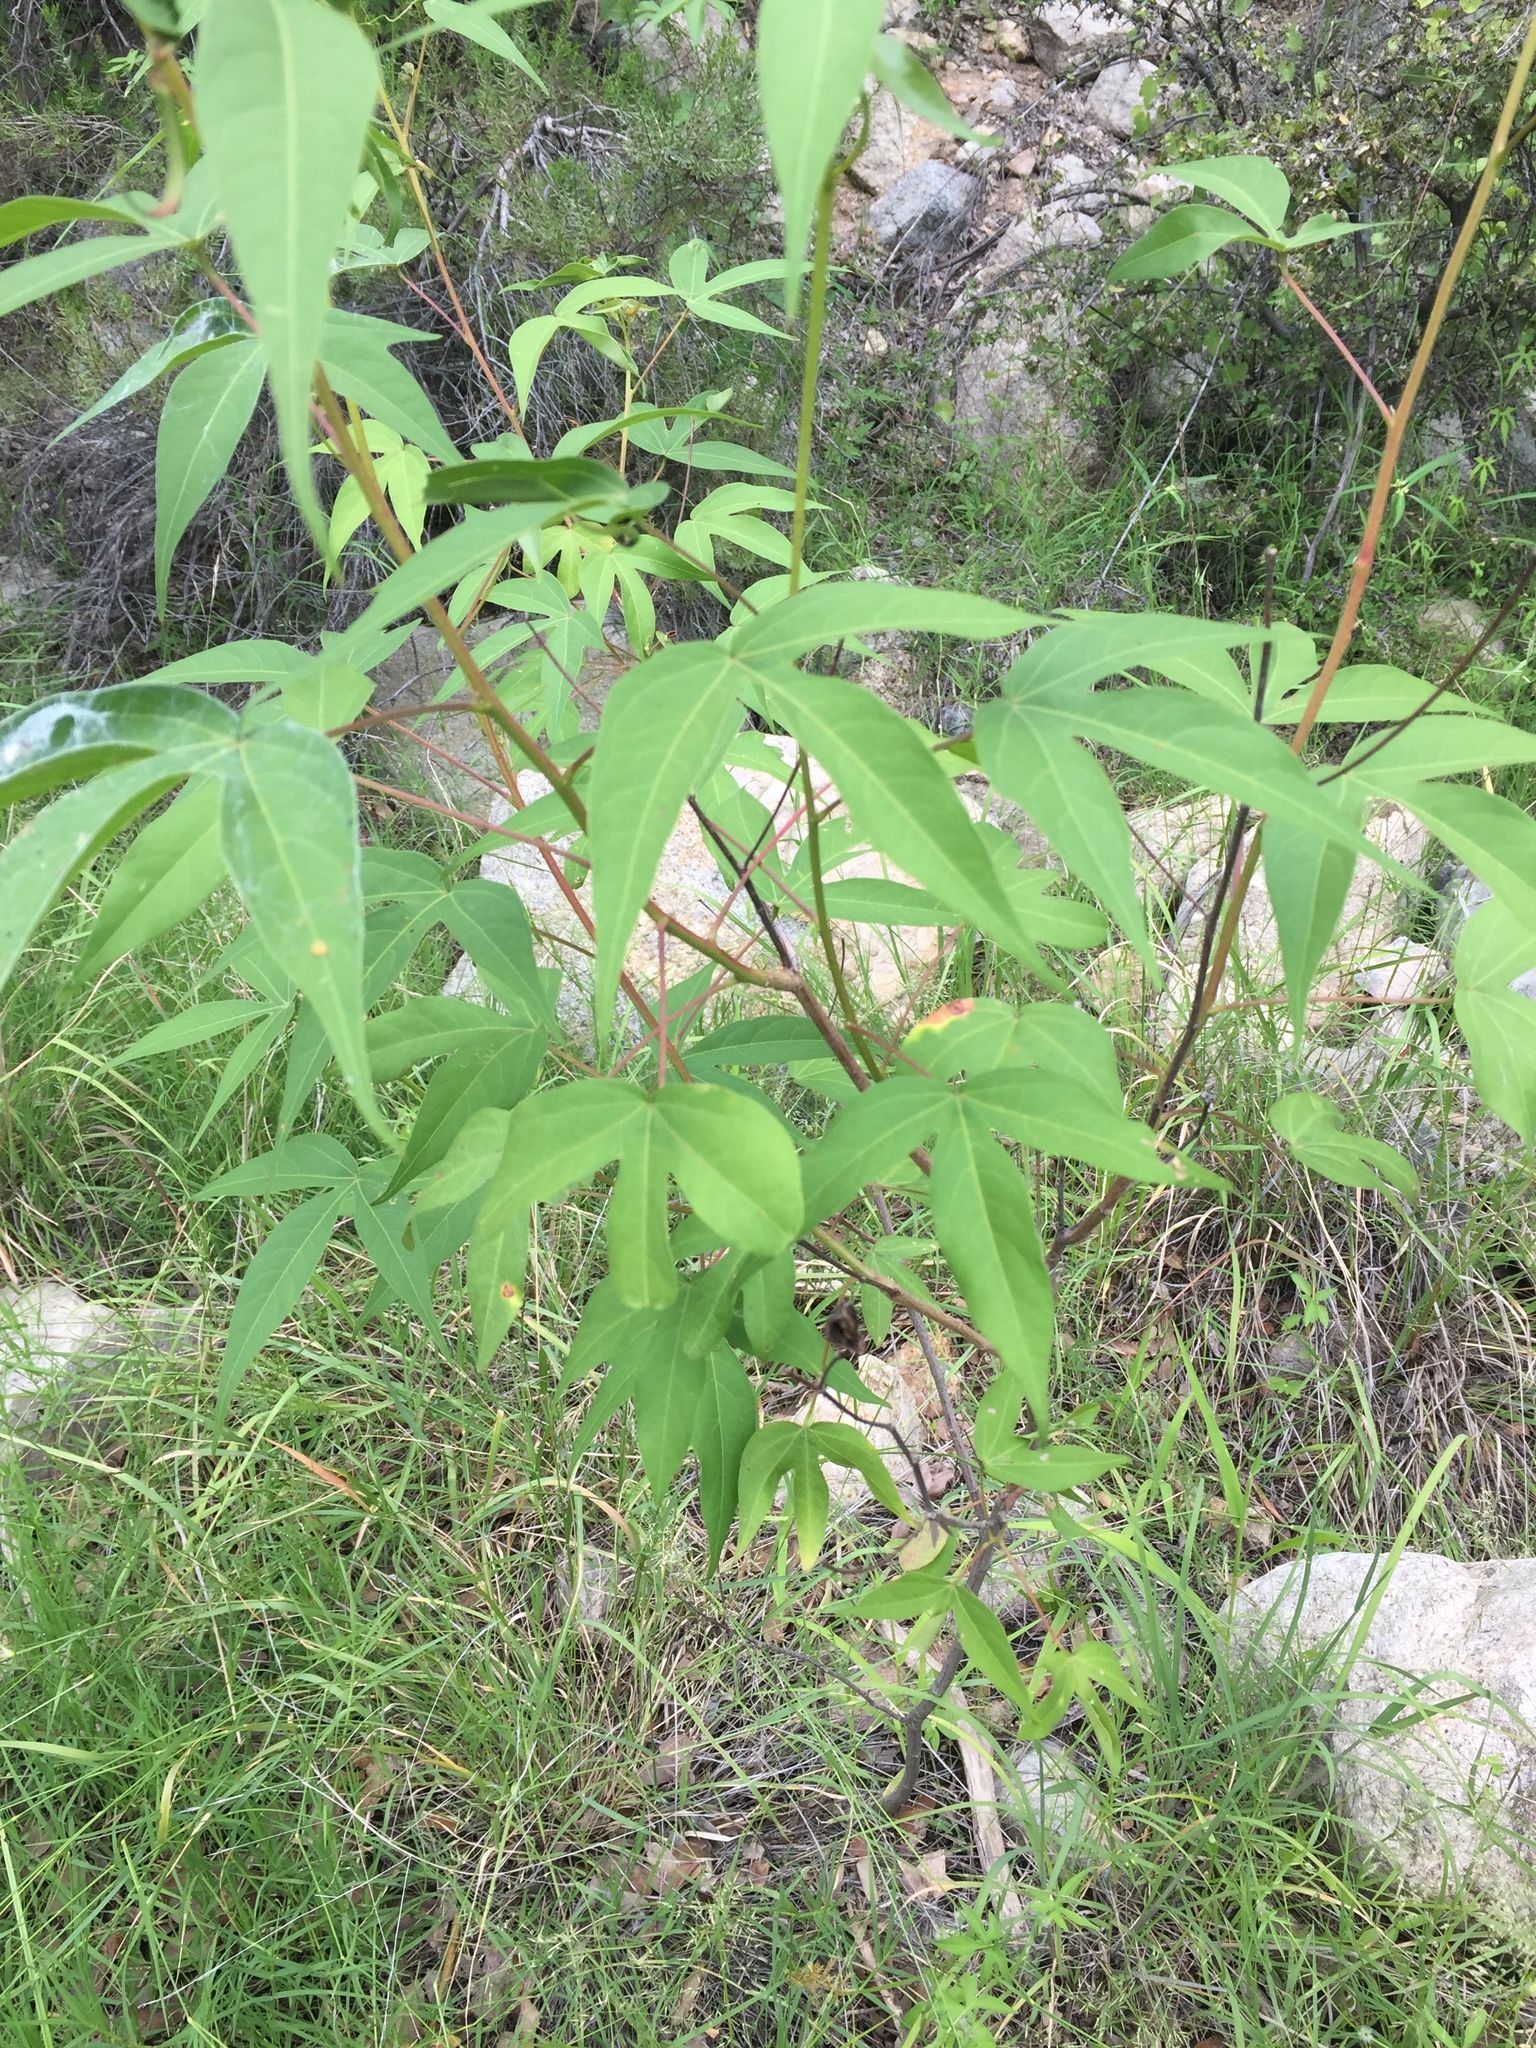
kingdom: Plantae
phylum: Tracheophyta
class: Magnoliopsida
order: Malvales
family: Malvaceae
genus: Gossypium
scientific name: Gossypium thurberi
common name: Desert cotton
